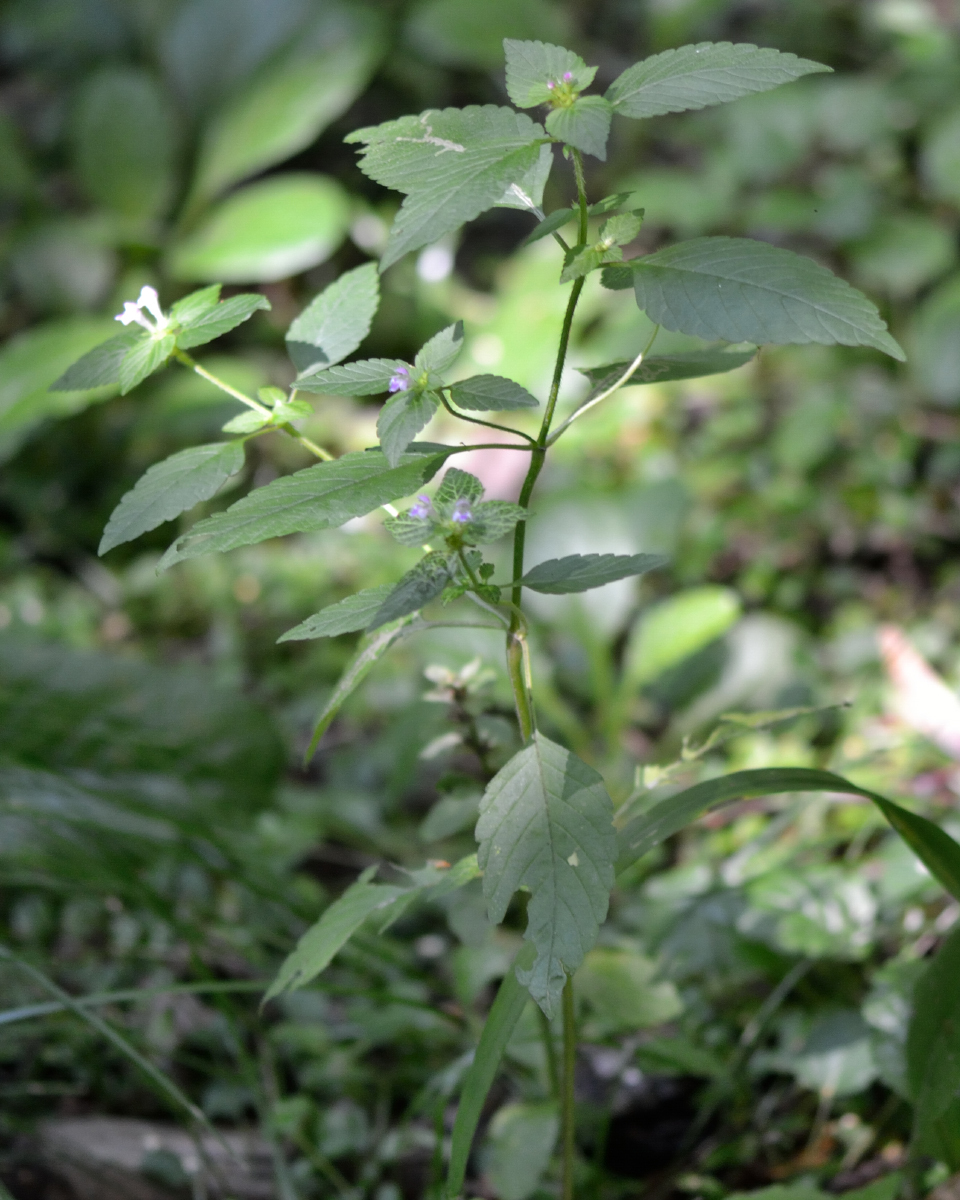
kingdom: Plantae
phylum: Tracheophyta
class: Magnoliopsida
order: Lamiales
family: Lamiaceae
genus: Galeopsis
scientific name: Galeopsis bifida
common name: Bifid hemp-nettle
